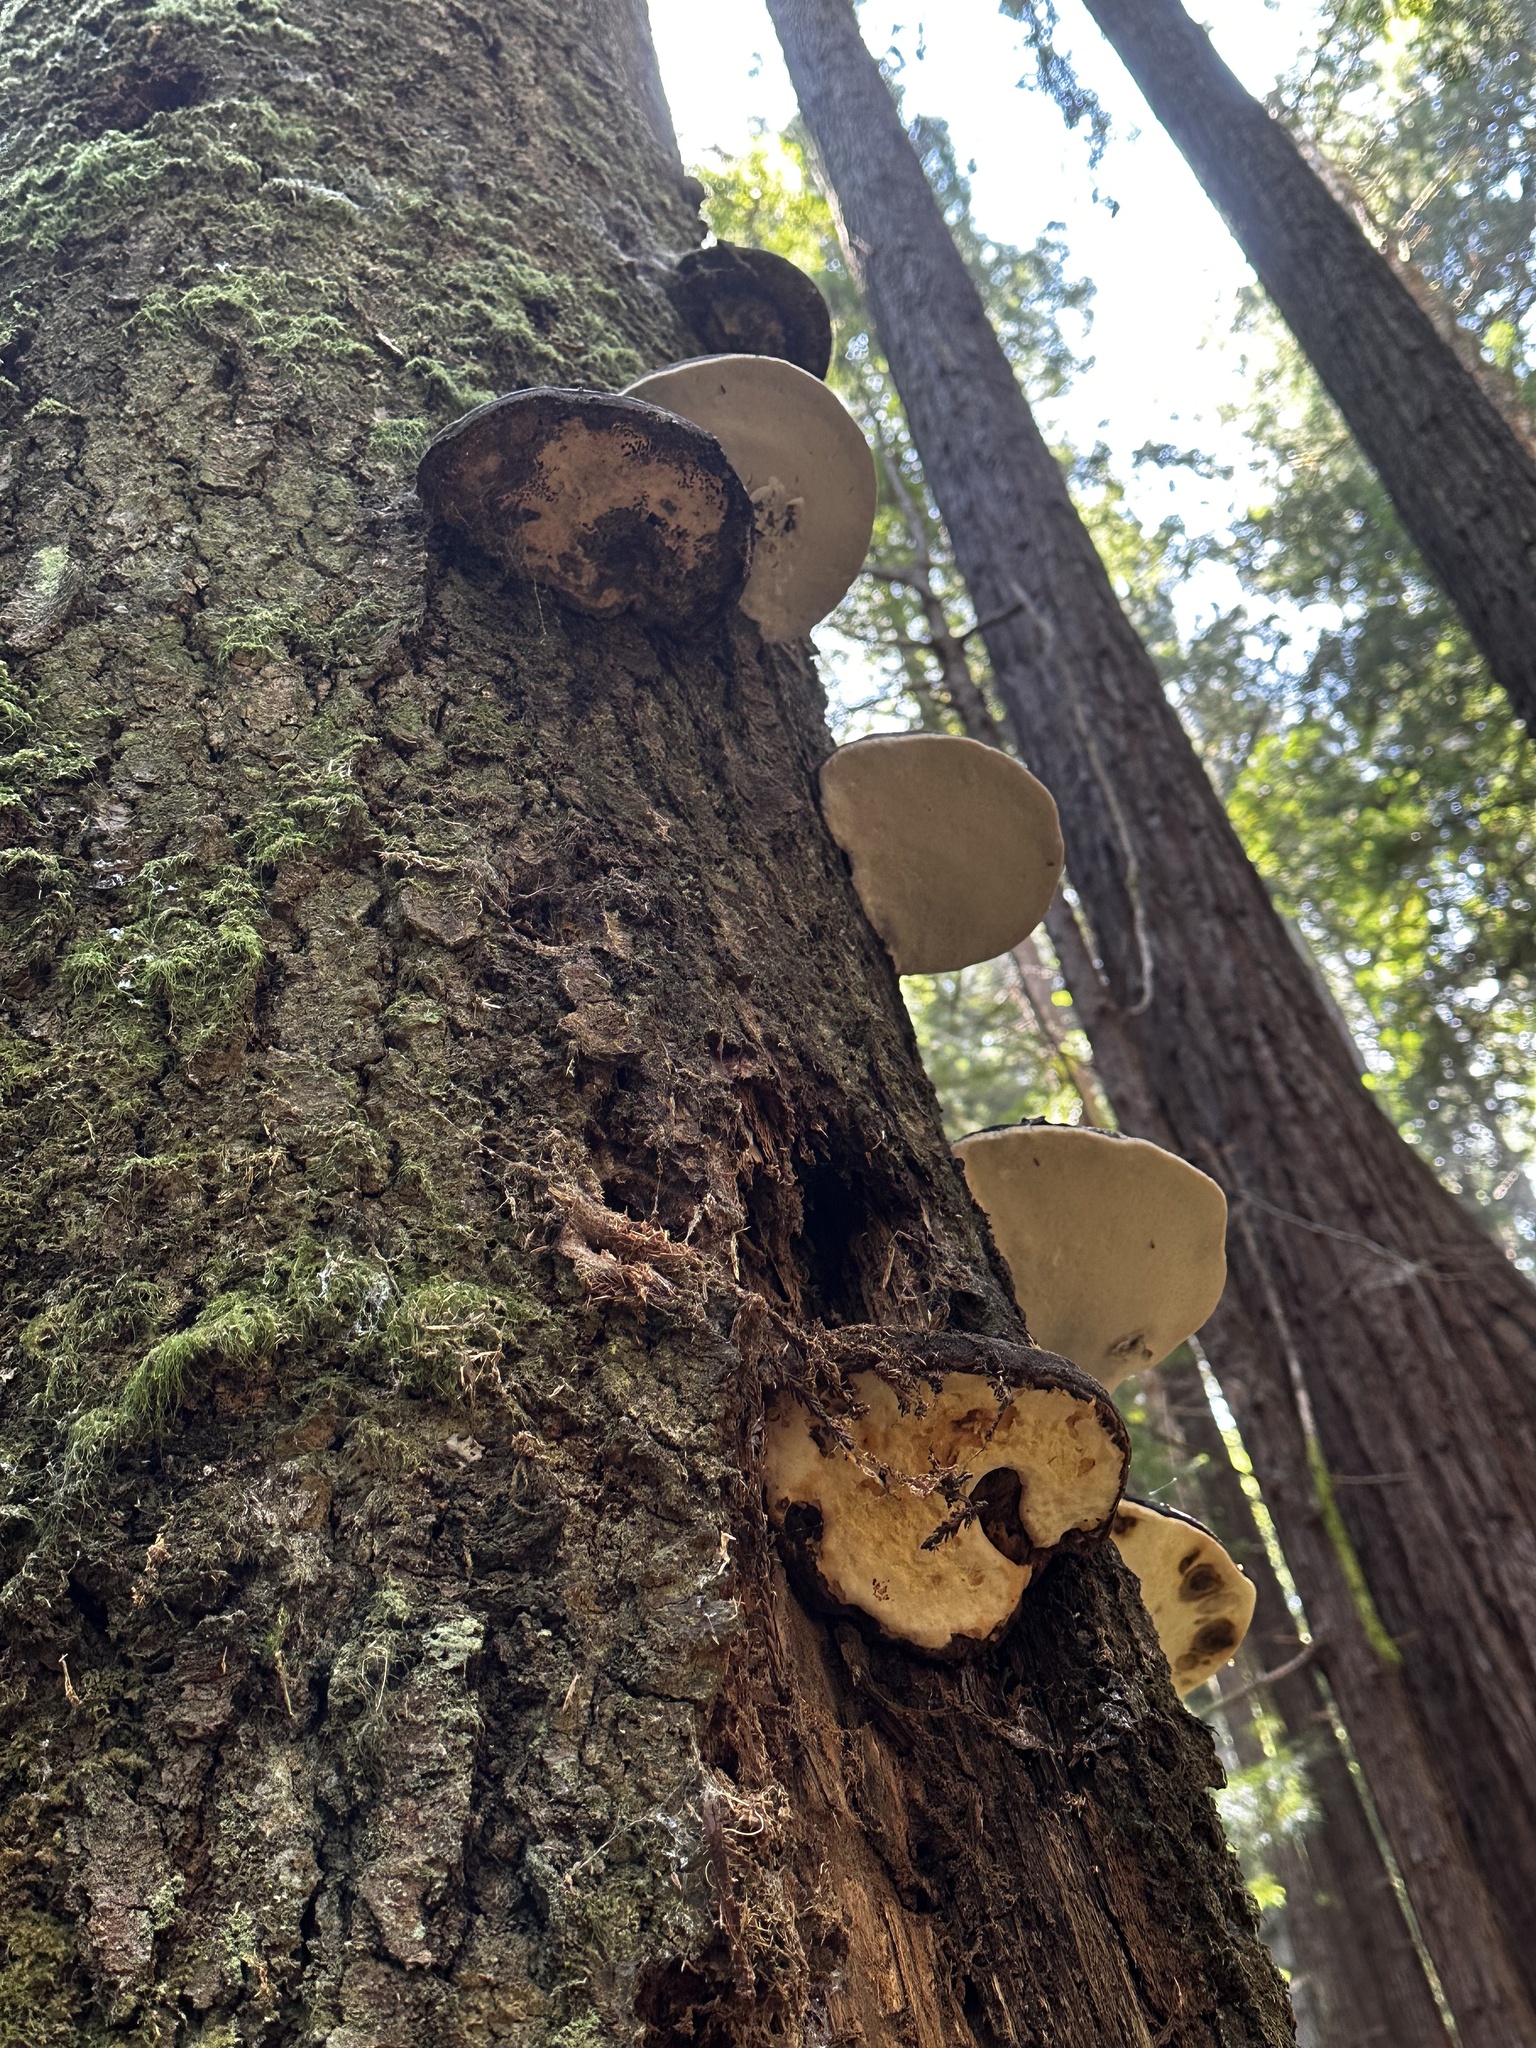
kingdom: Fungi
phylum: Basidiomycota
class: Agaricomycetes
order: Polyporales
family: Fomitopsidaceae
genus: Fomitopsis
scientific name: Fomitopsis ochracea
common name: American brown fomitopsis
